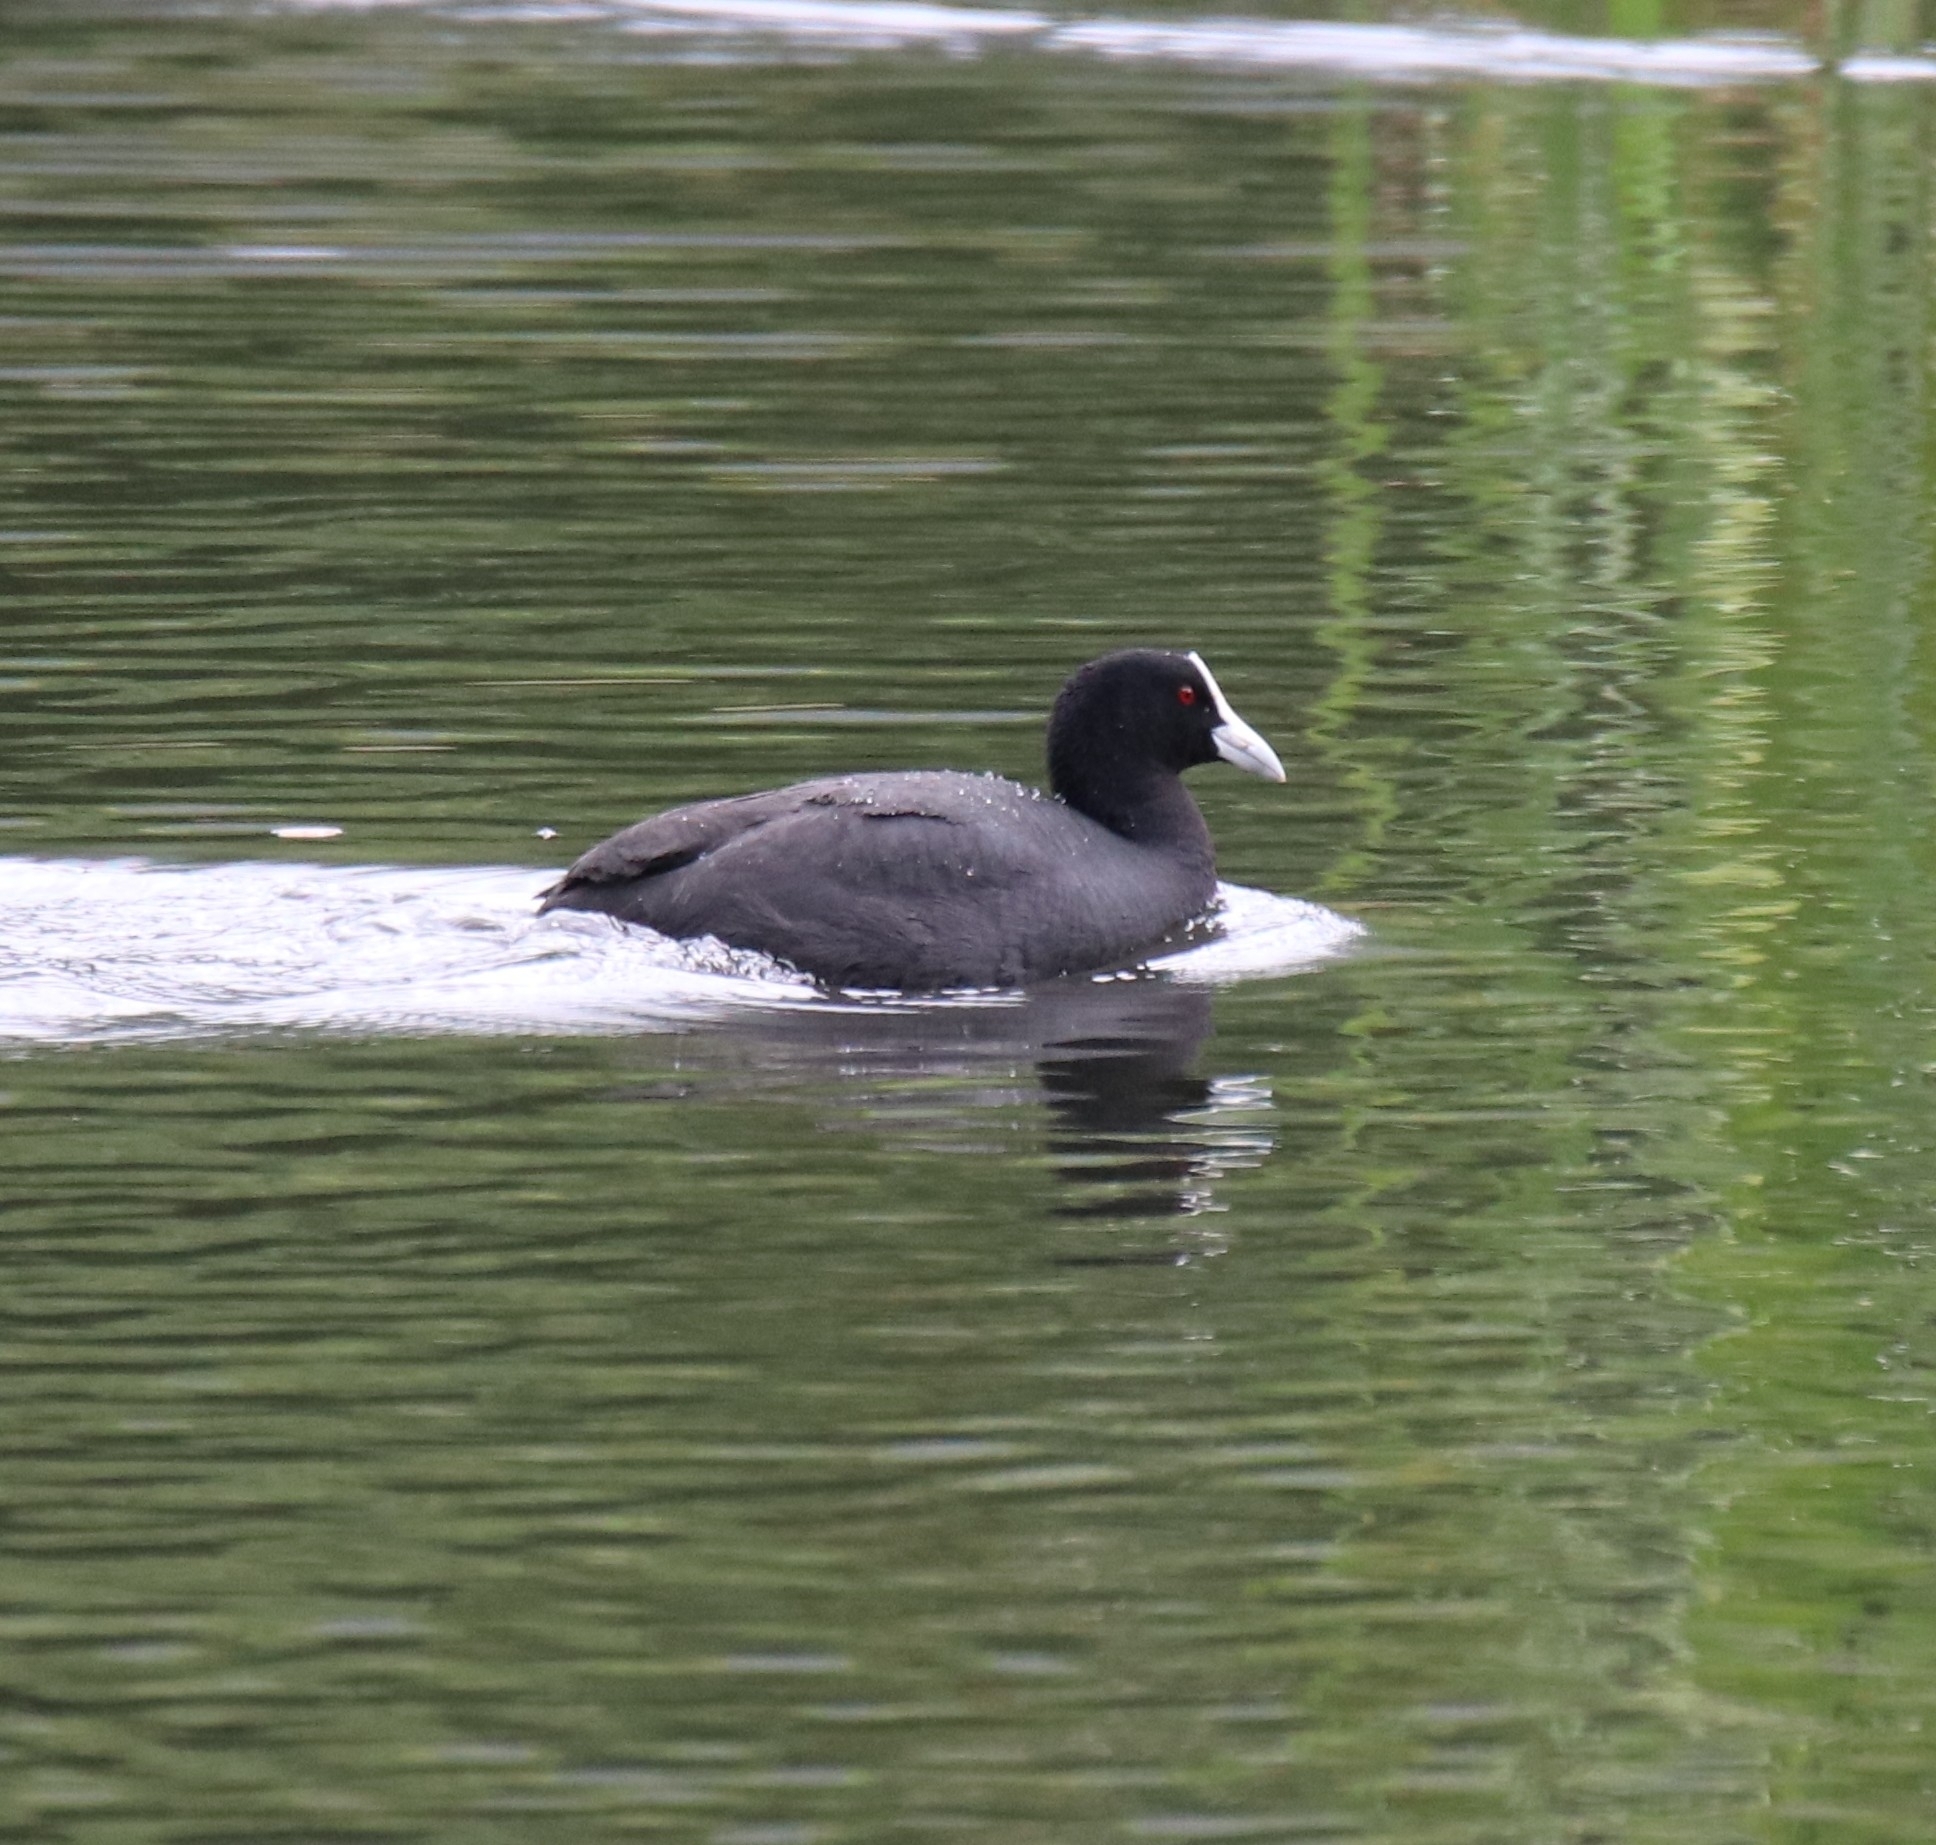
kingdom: Animalia
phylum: Chordata
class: Aves
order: Gruiformes
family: Rallidae
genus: Fulica
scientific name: Fulica atra
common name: Eurasian coot
